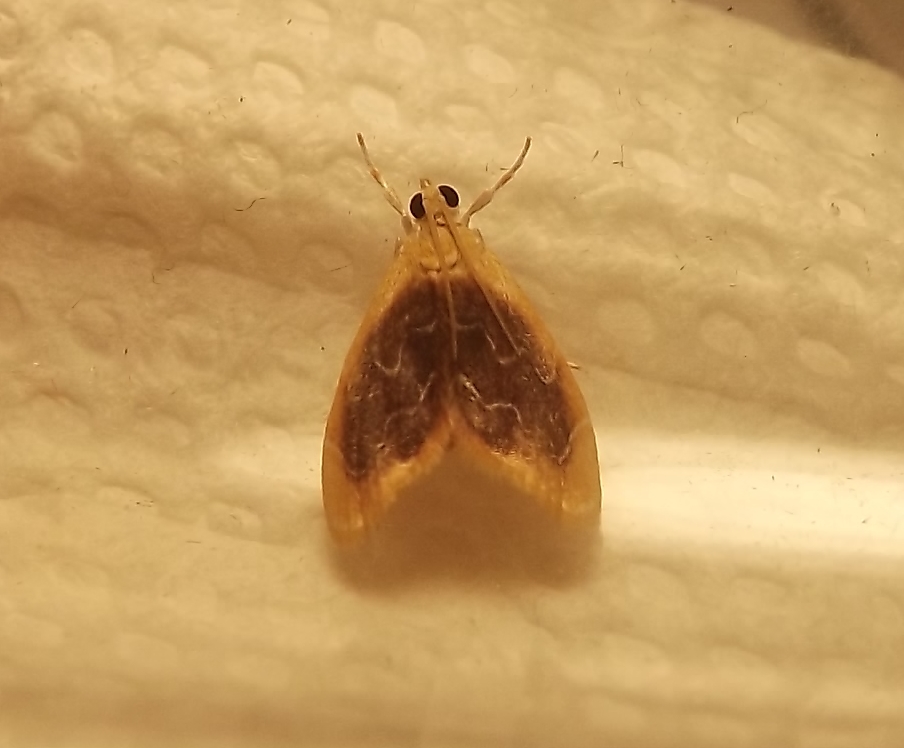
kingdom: Animalia
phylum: Arthropoda
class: Insecta
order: Lepidoptera
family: Crambidae
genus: Glaphyria
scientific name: Glaphyria fulminalis
